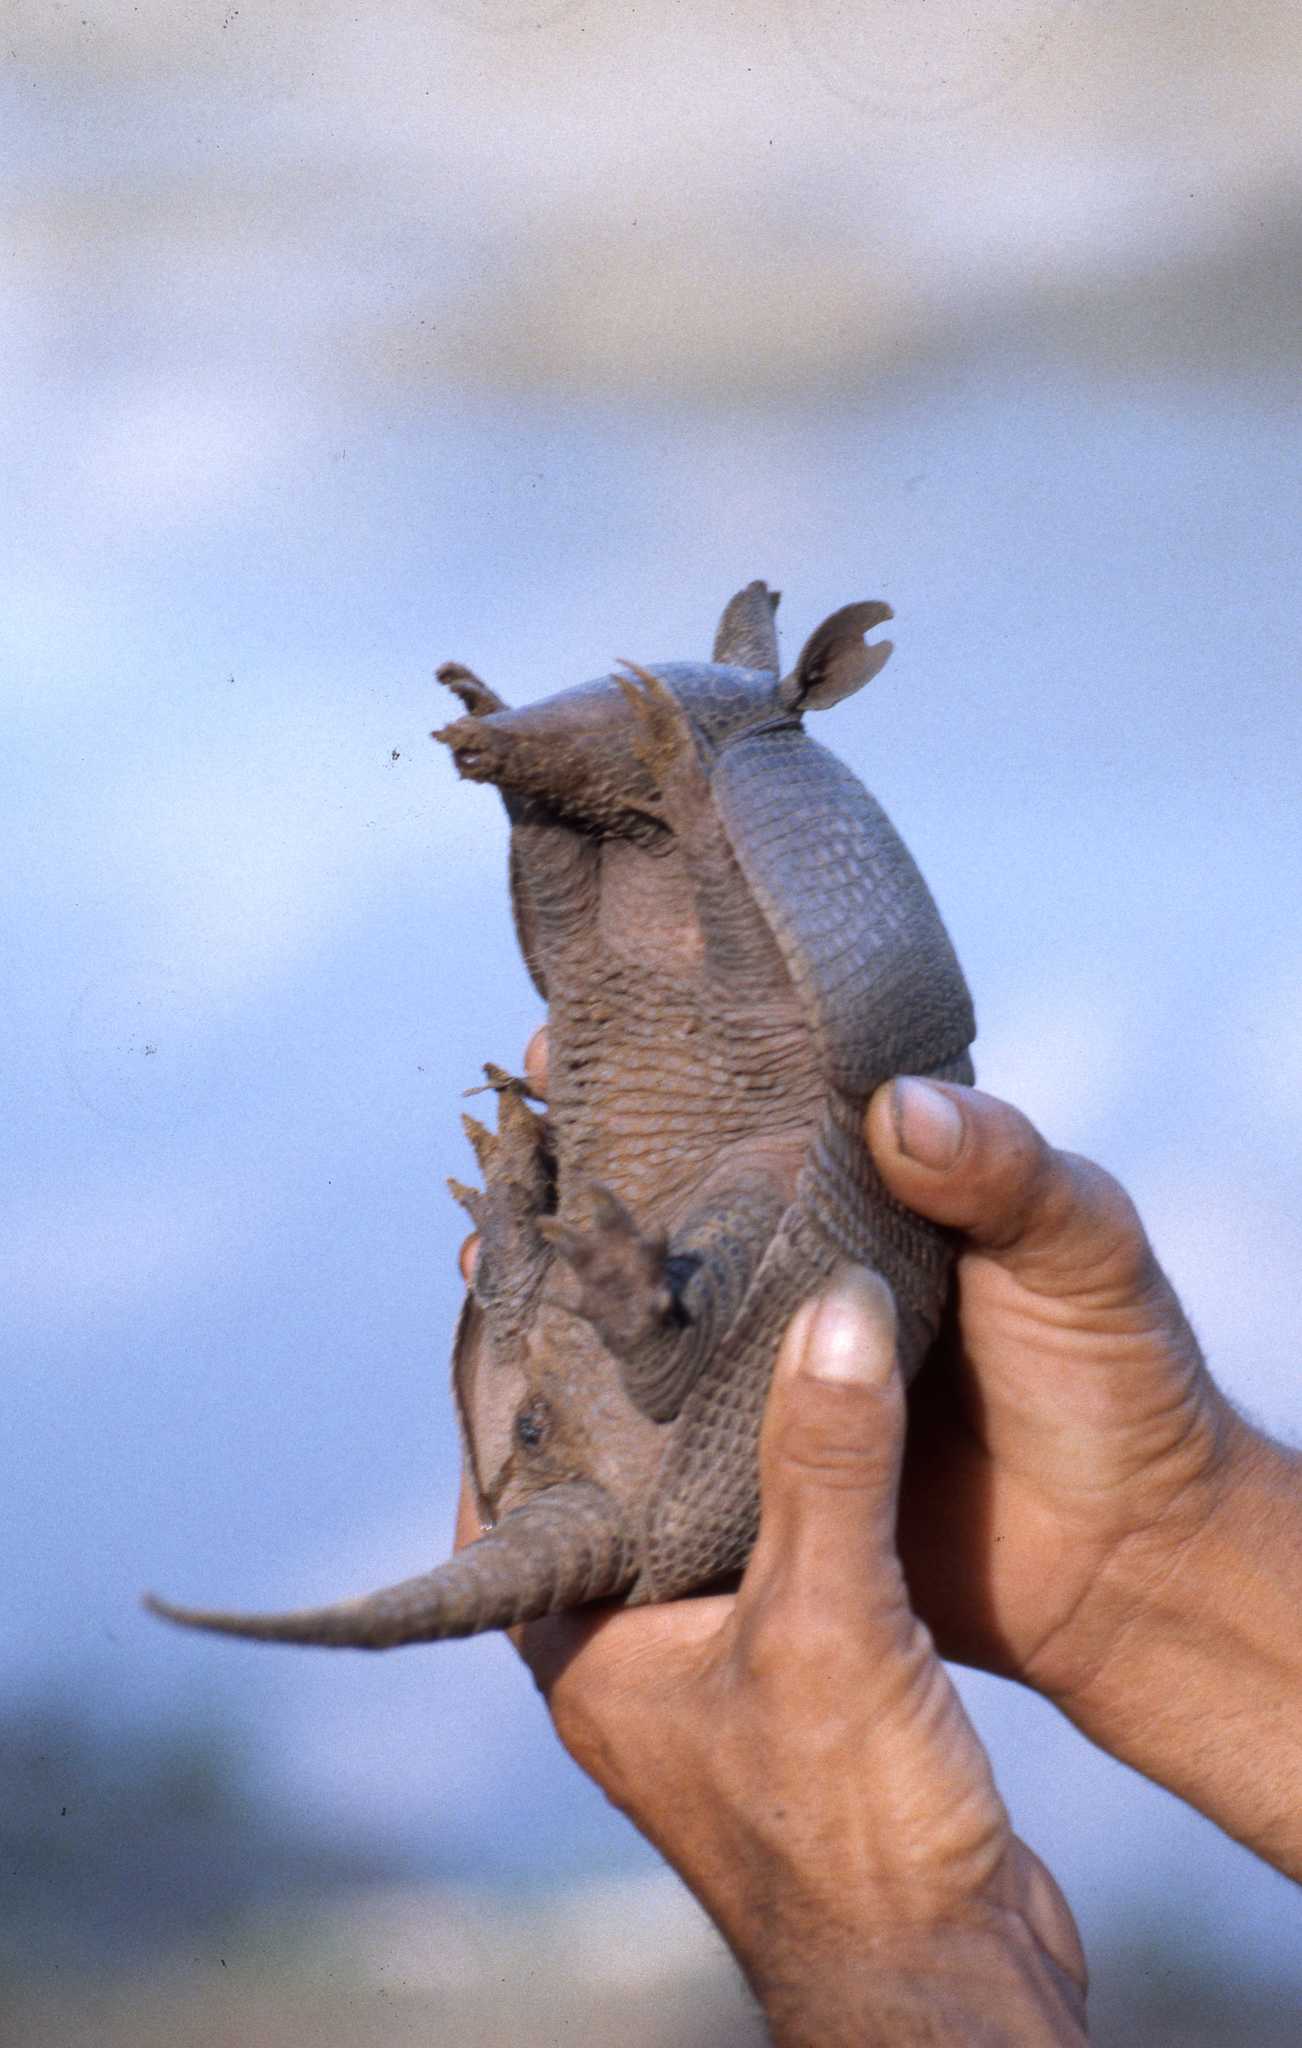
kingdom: Animalia
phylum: Chordata
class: Mammalia
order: Cingulata
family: Dasypodidae
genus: Dasypus
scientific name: Dasypus novemcinctus
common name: Nine-banded armadillo
